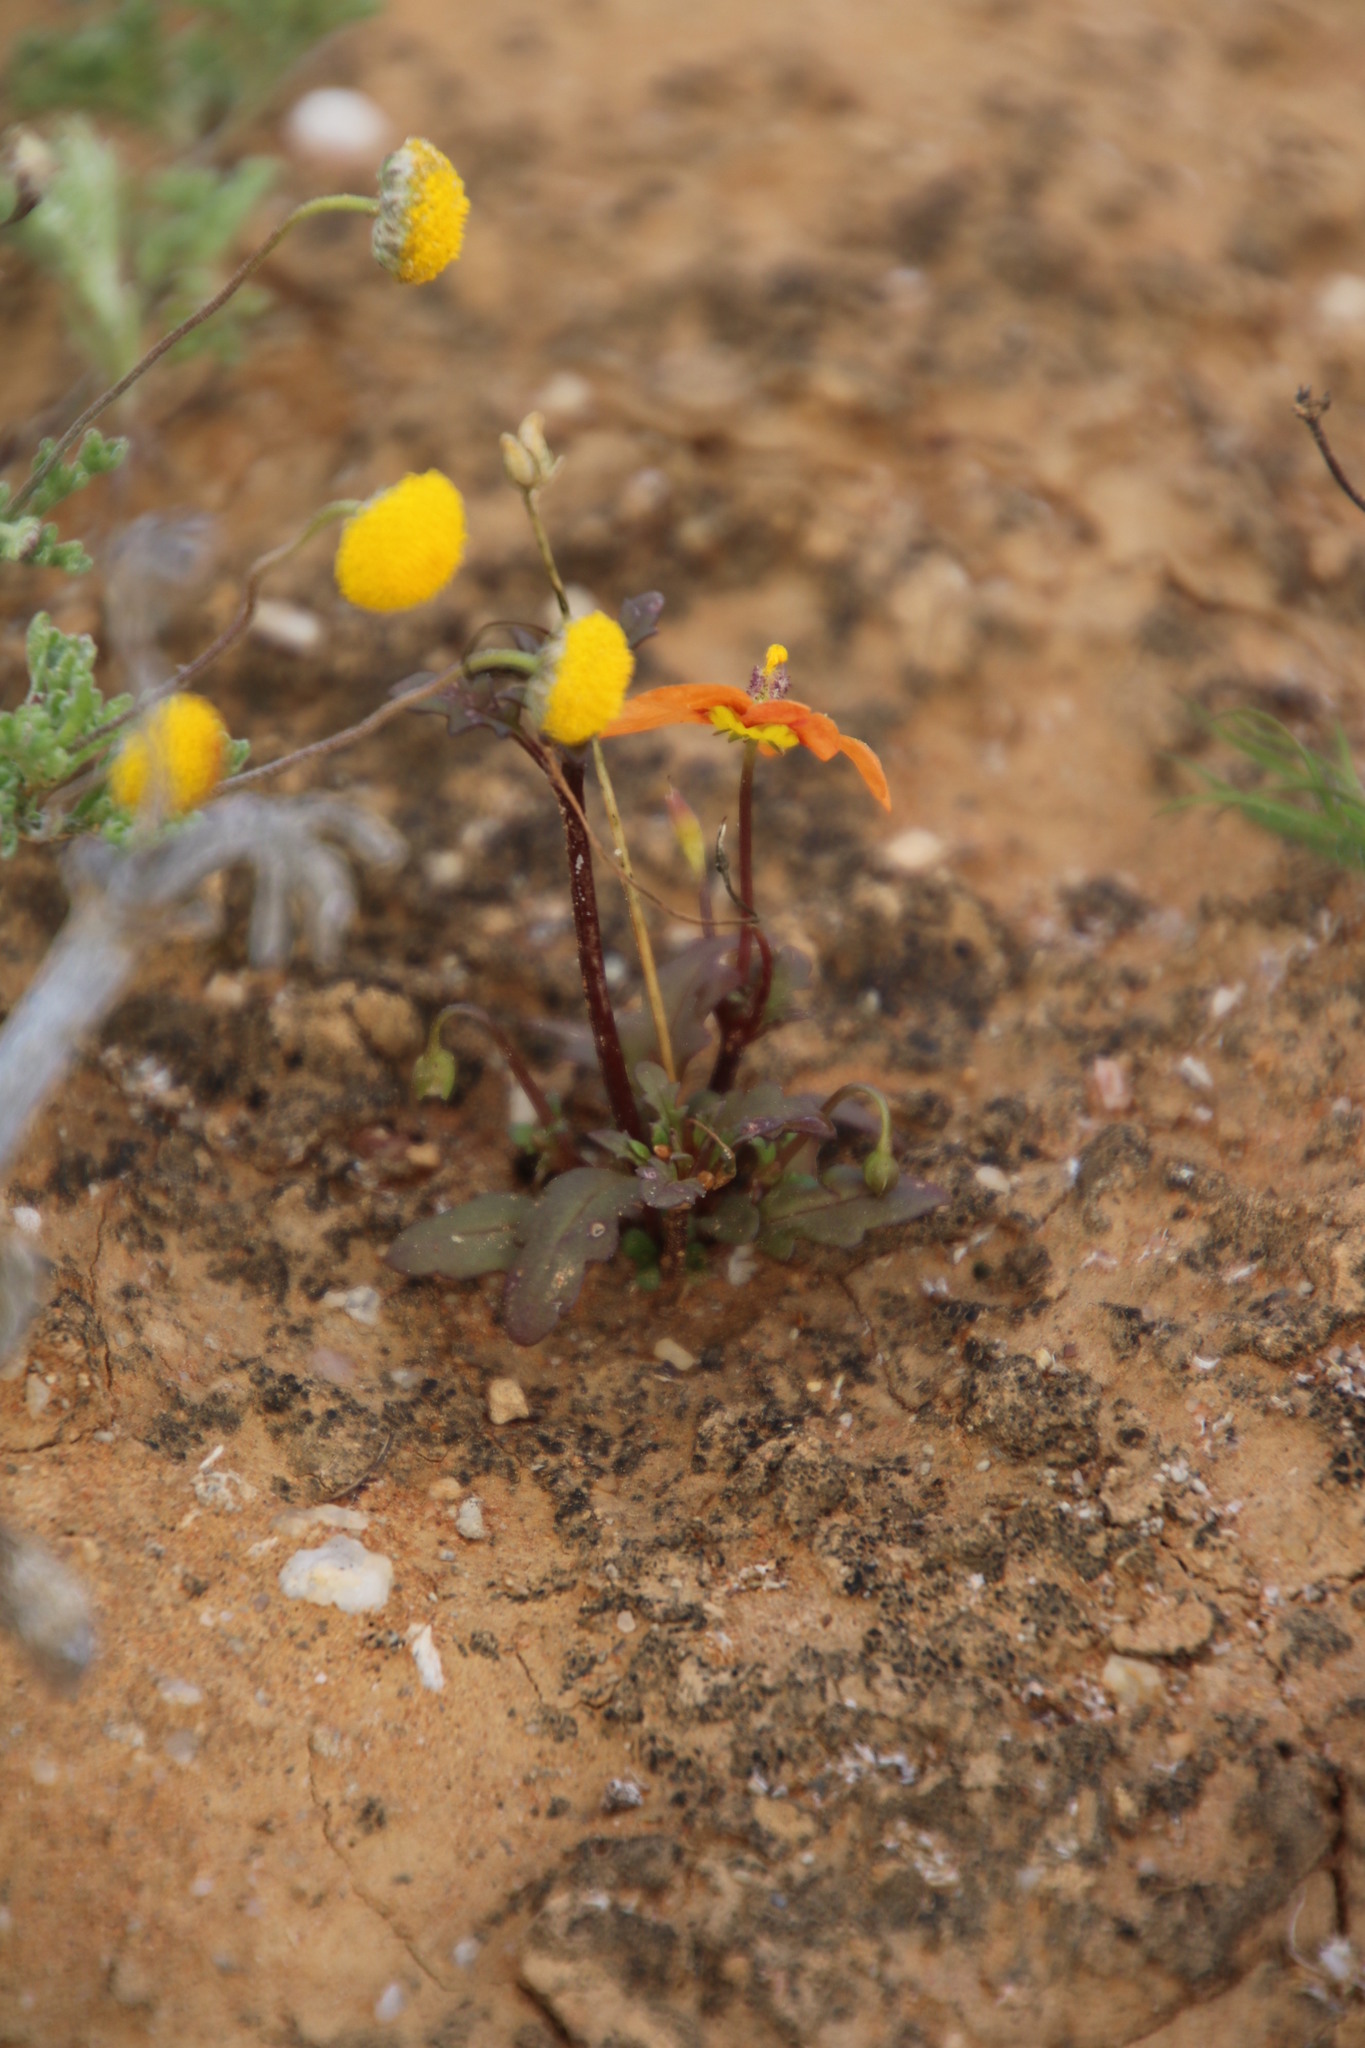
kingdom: Plantae
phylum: Tracheophyta
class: Magnoliopsida
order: Lamiales
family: Scrophulariaceae
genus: Diascia
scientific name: Diascia rudolphii
